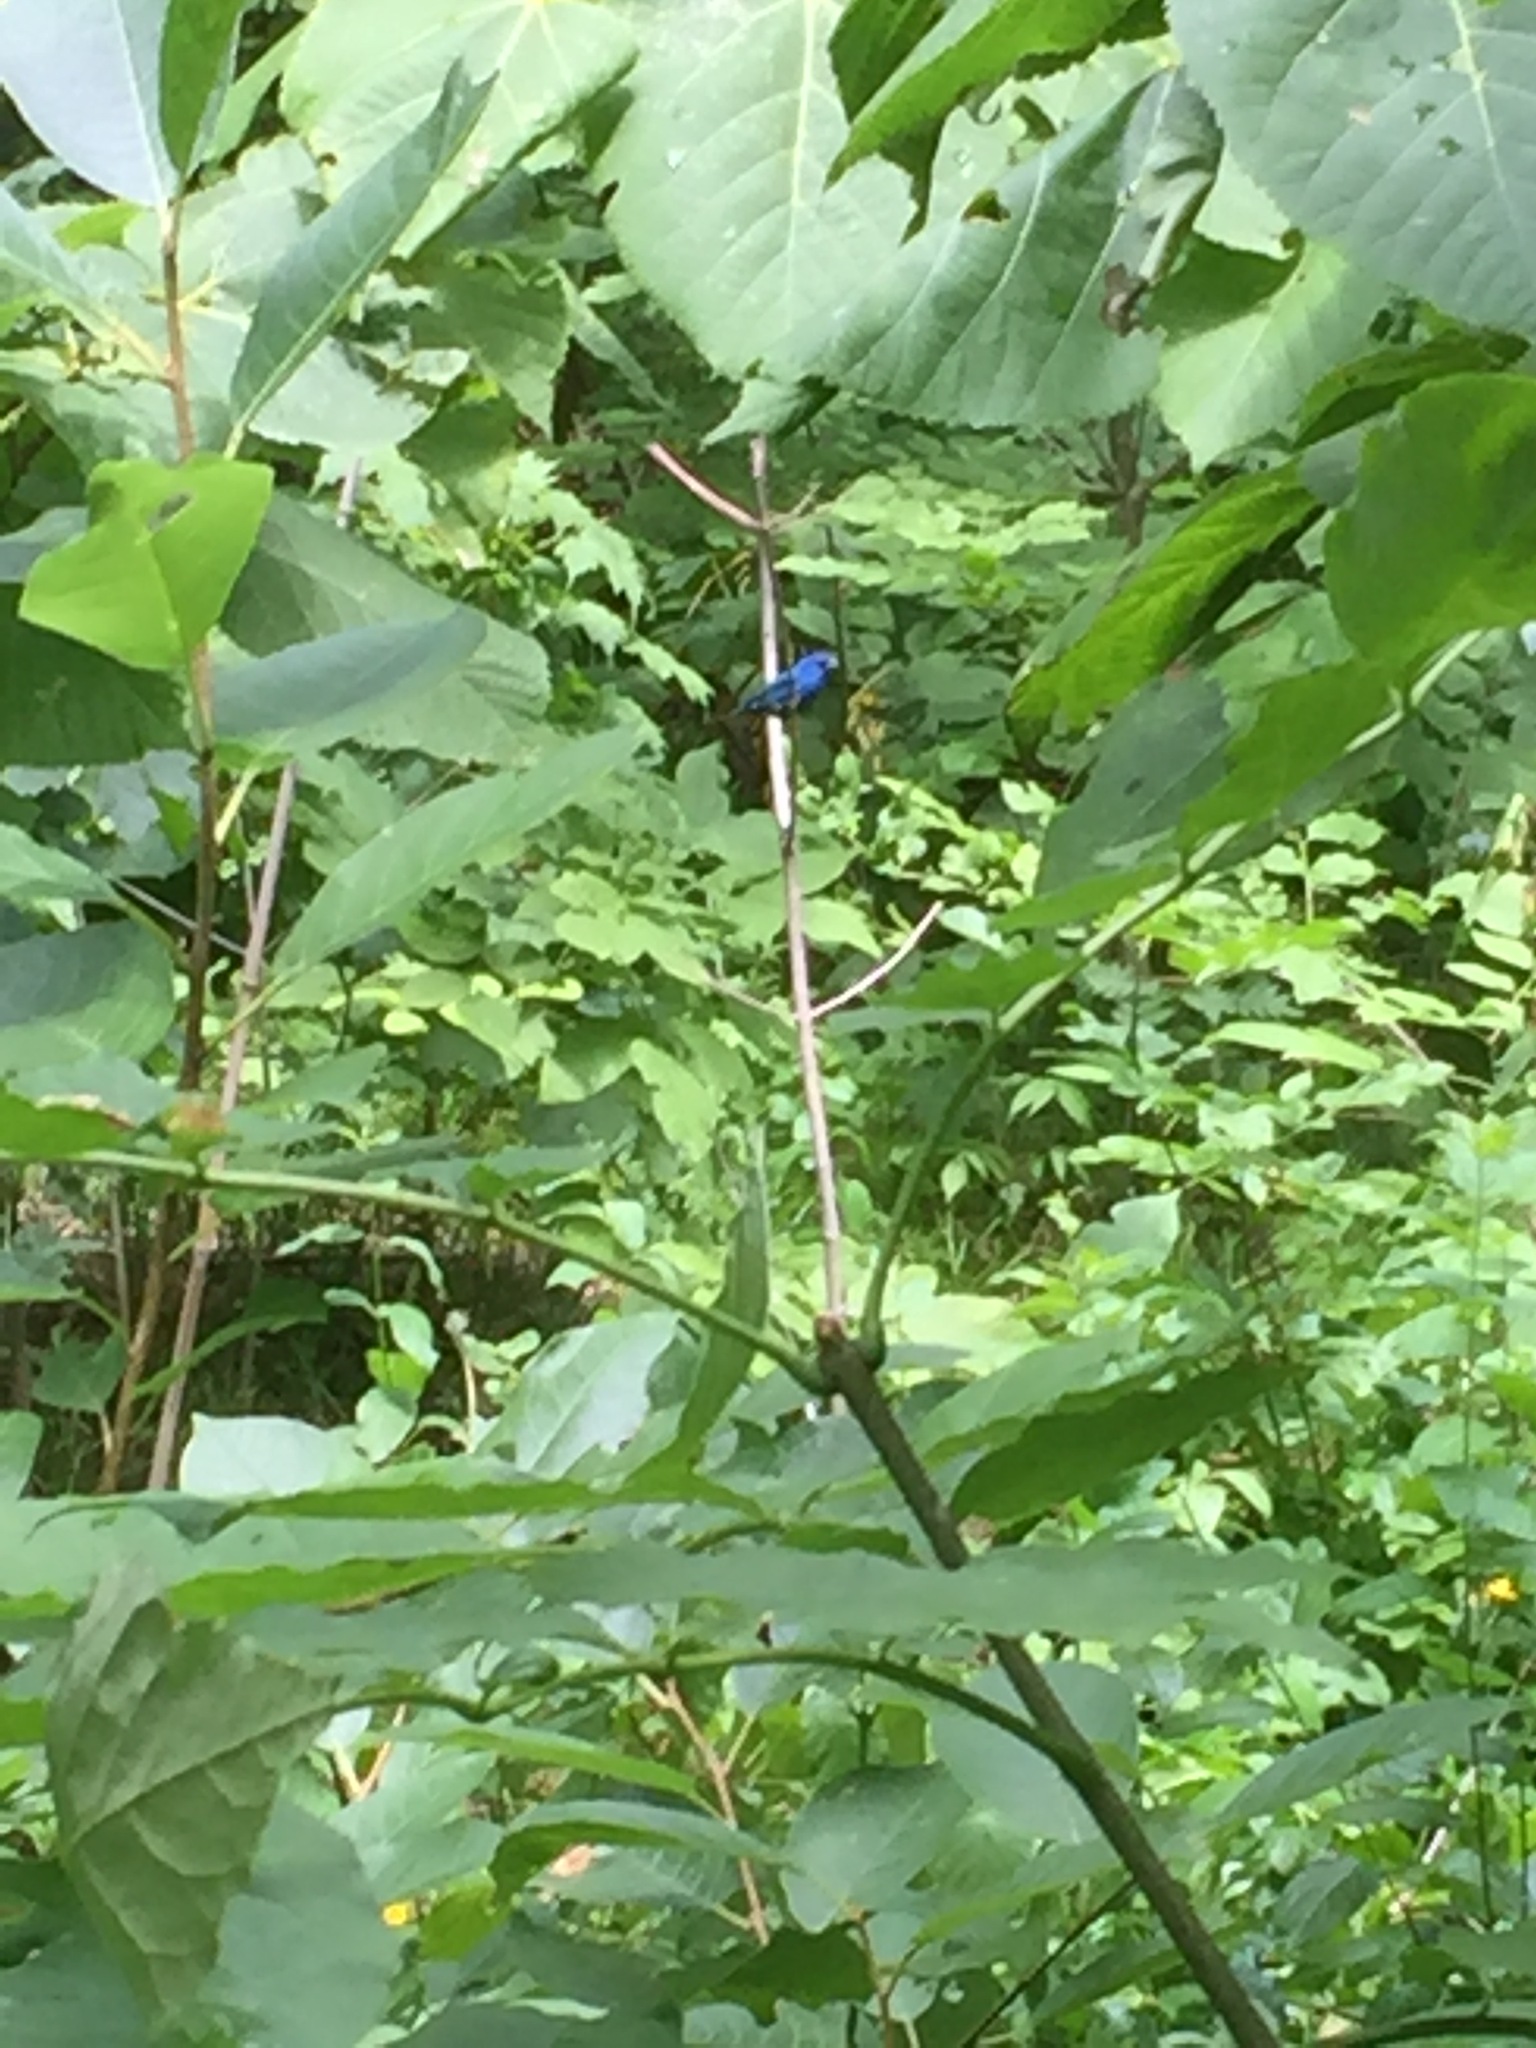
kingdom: Animalia
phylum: Chordata
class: Aves
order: Passeriformes
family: Cardinalidae
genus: Passerina
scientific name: Passerina cyanea
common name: Indigo bunting
